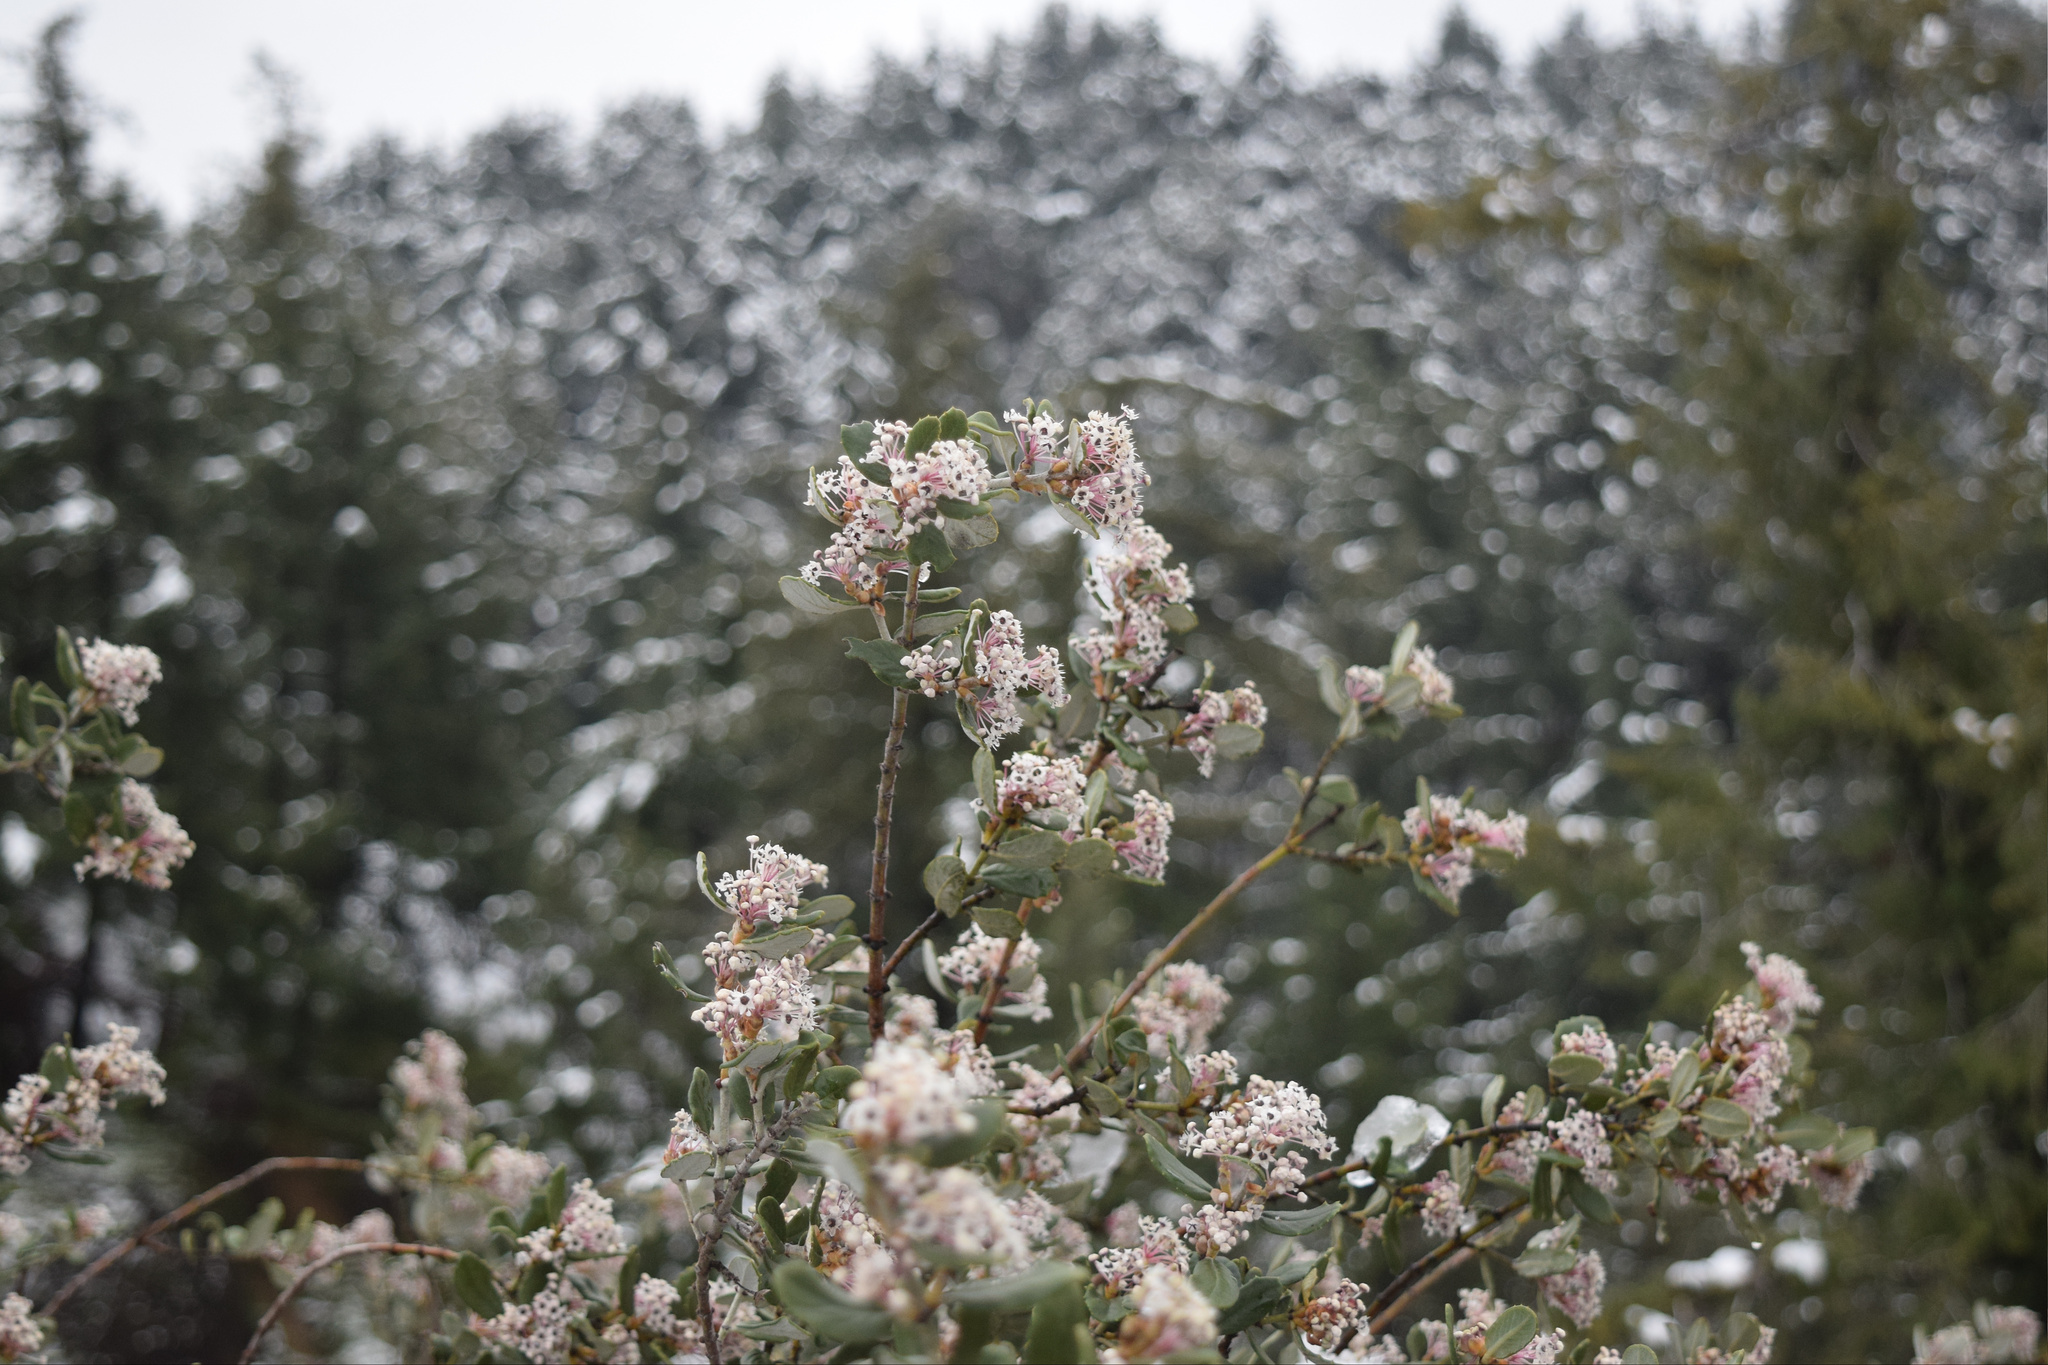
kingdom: Plantae
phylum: Tracheophyta
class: Magnoliopsida
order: Rosales
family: Rhamnaceae
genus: Ceanothus
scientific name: Ceanothus crassifolius
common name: Hoaryleaf ceanothus
